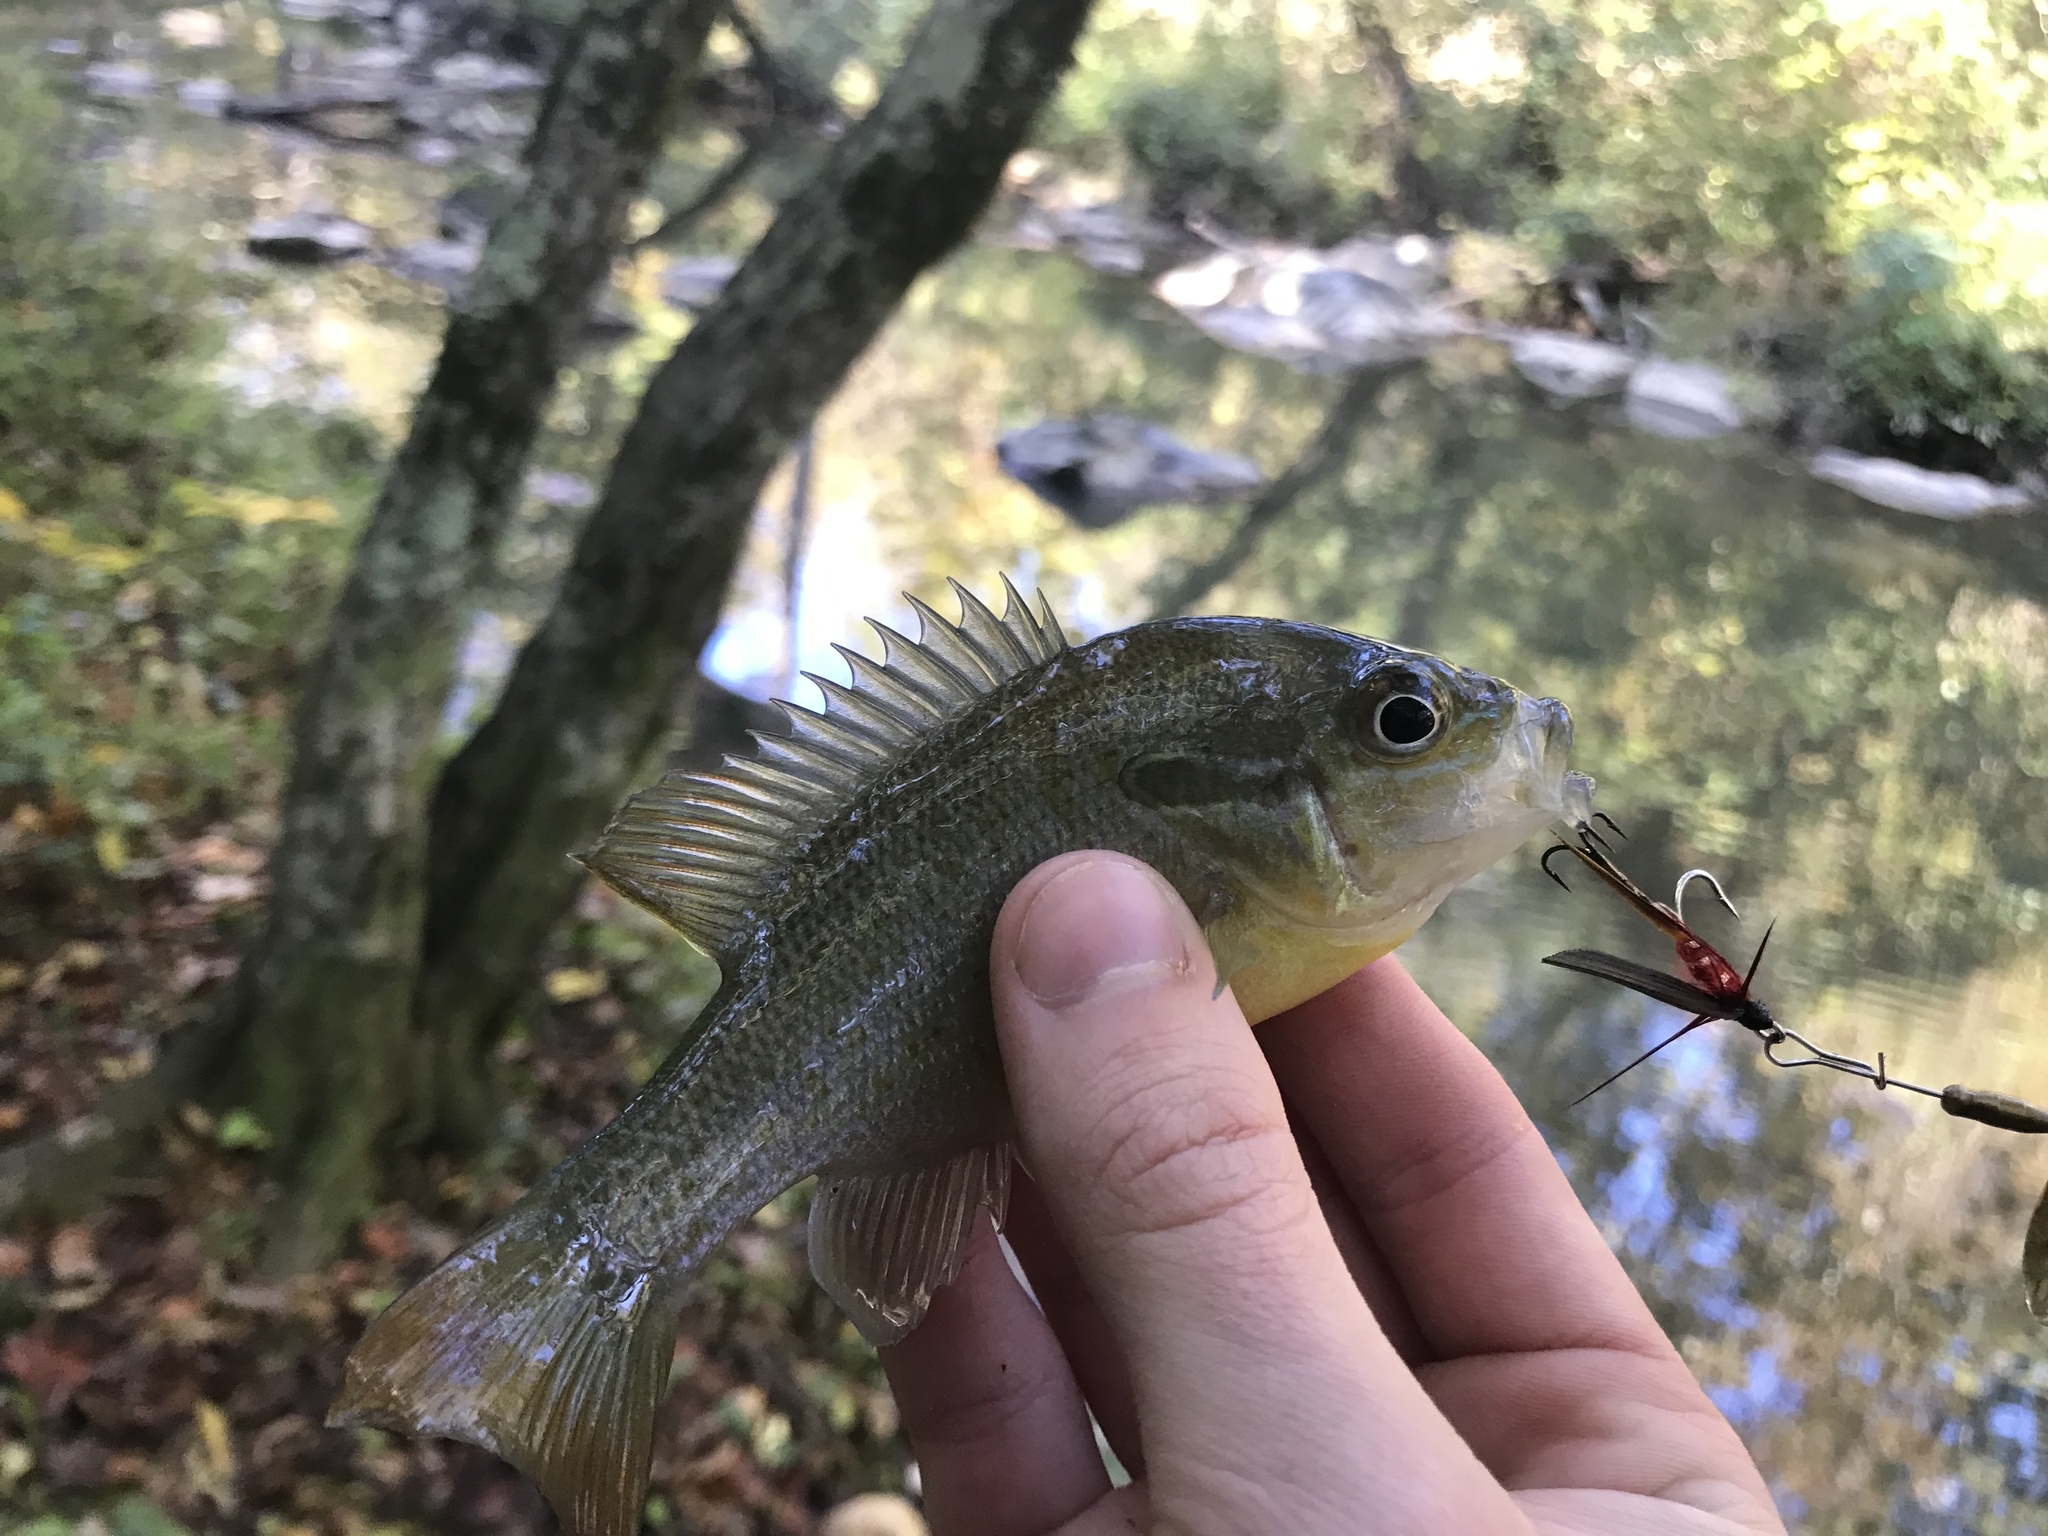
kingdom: Animalia
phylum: Chordata
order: Perciformes
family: Centrarchidae
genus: Lepomis
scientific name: Lepomis auritus
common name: Redbreast sunfish
